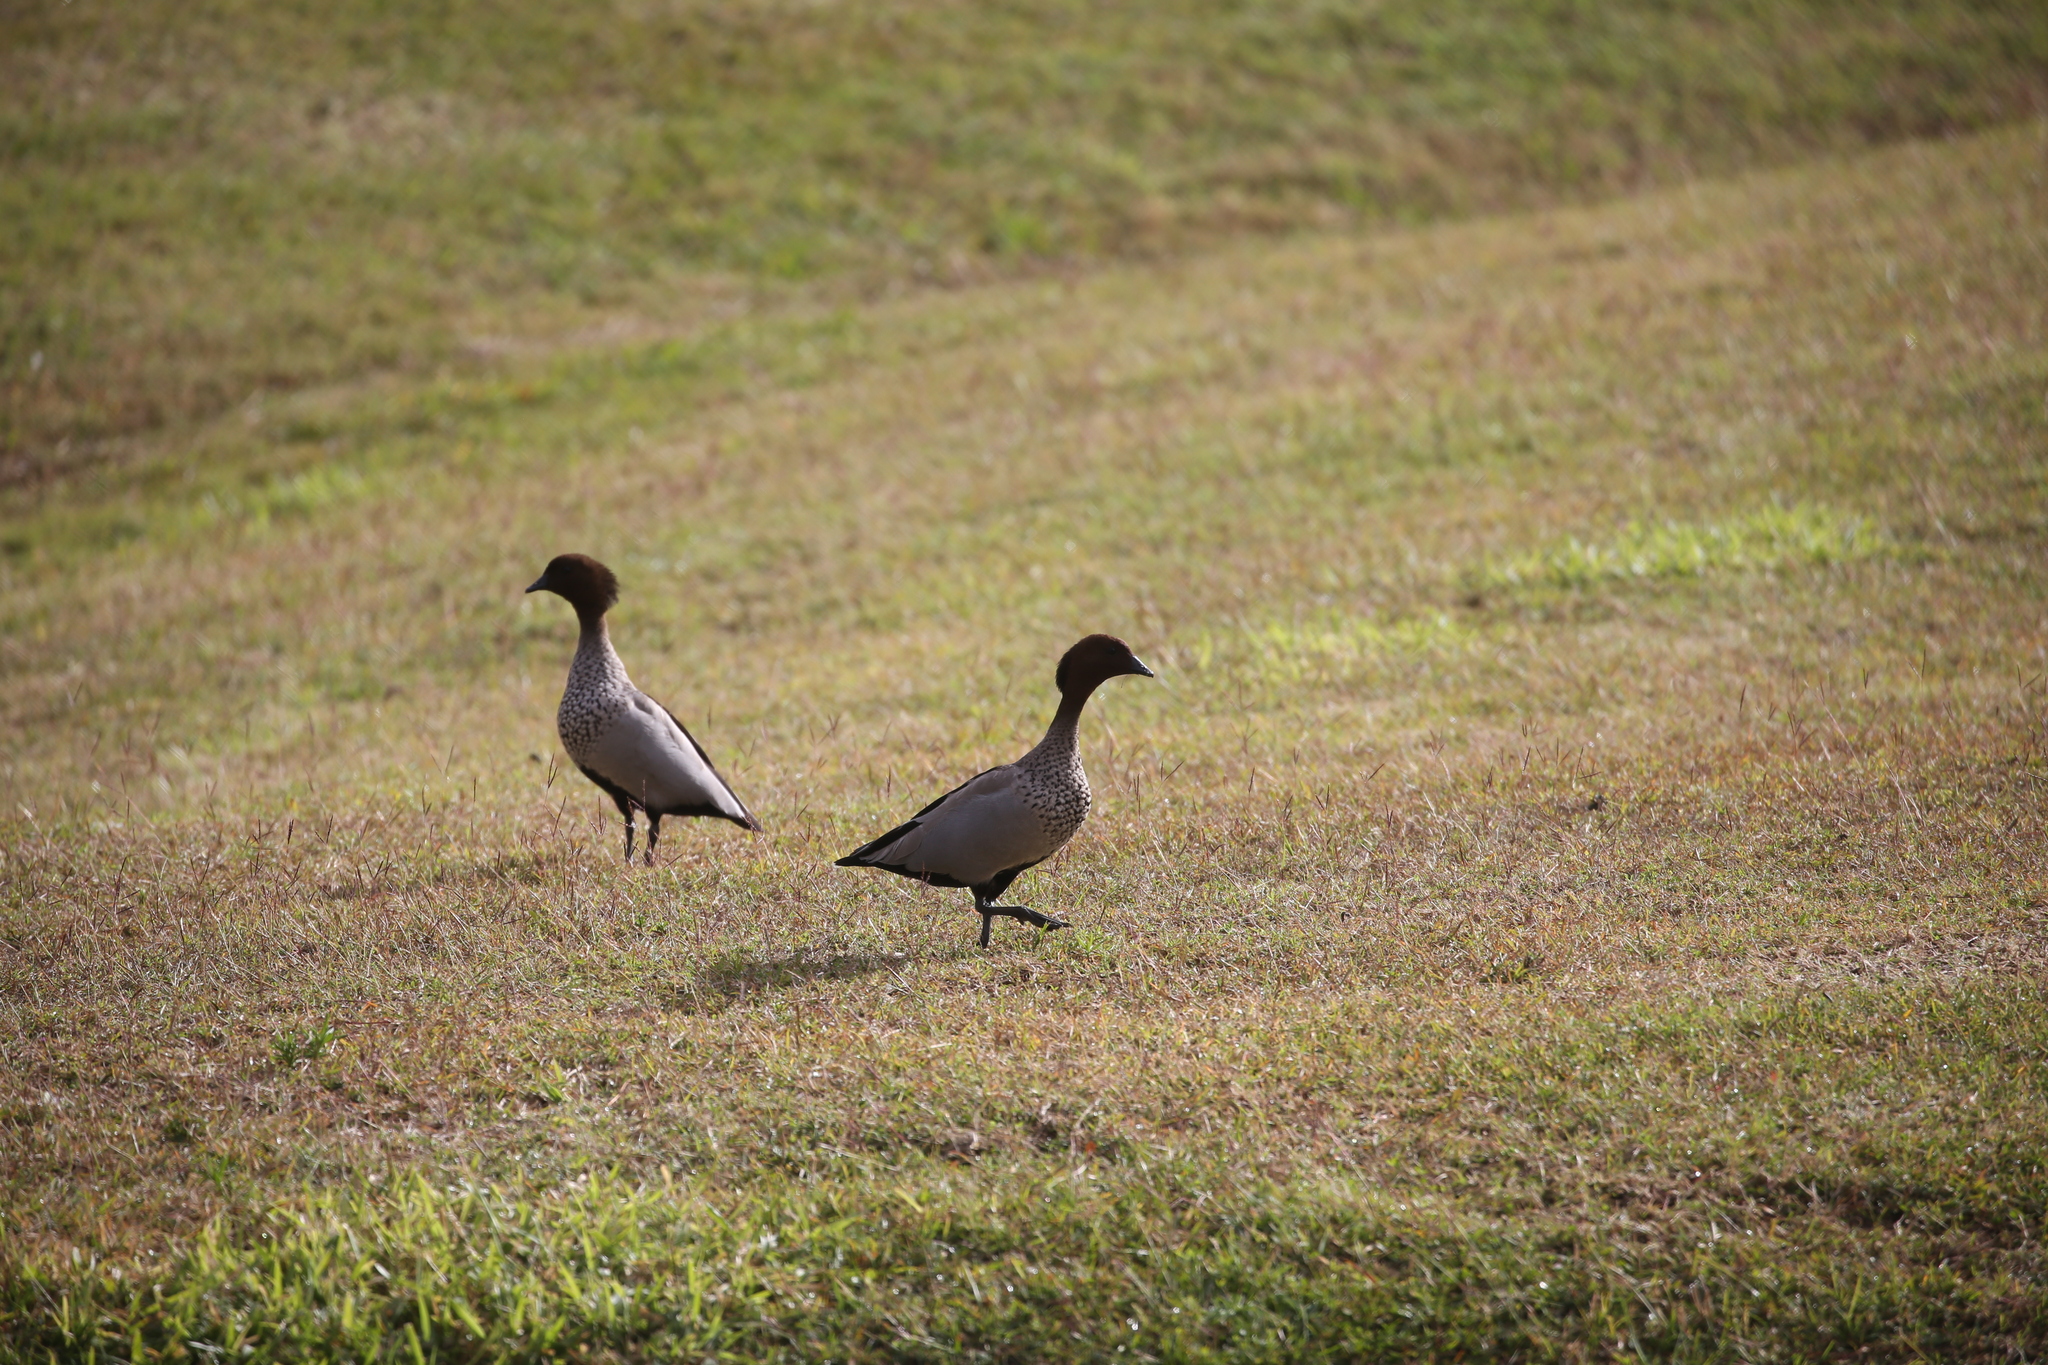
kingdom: Animalia
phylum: Chordata
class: Aves
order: Anseriformes
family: Anatidae
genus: Chenonetta
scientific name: Chenonetta jubata
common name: Maned duck
